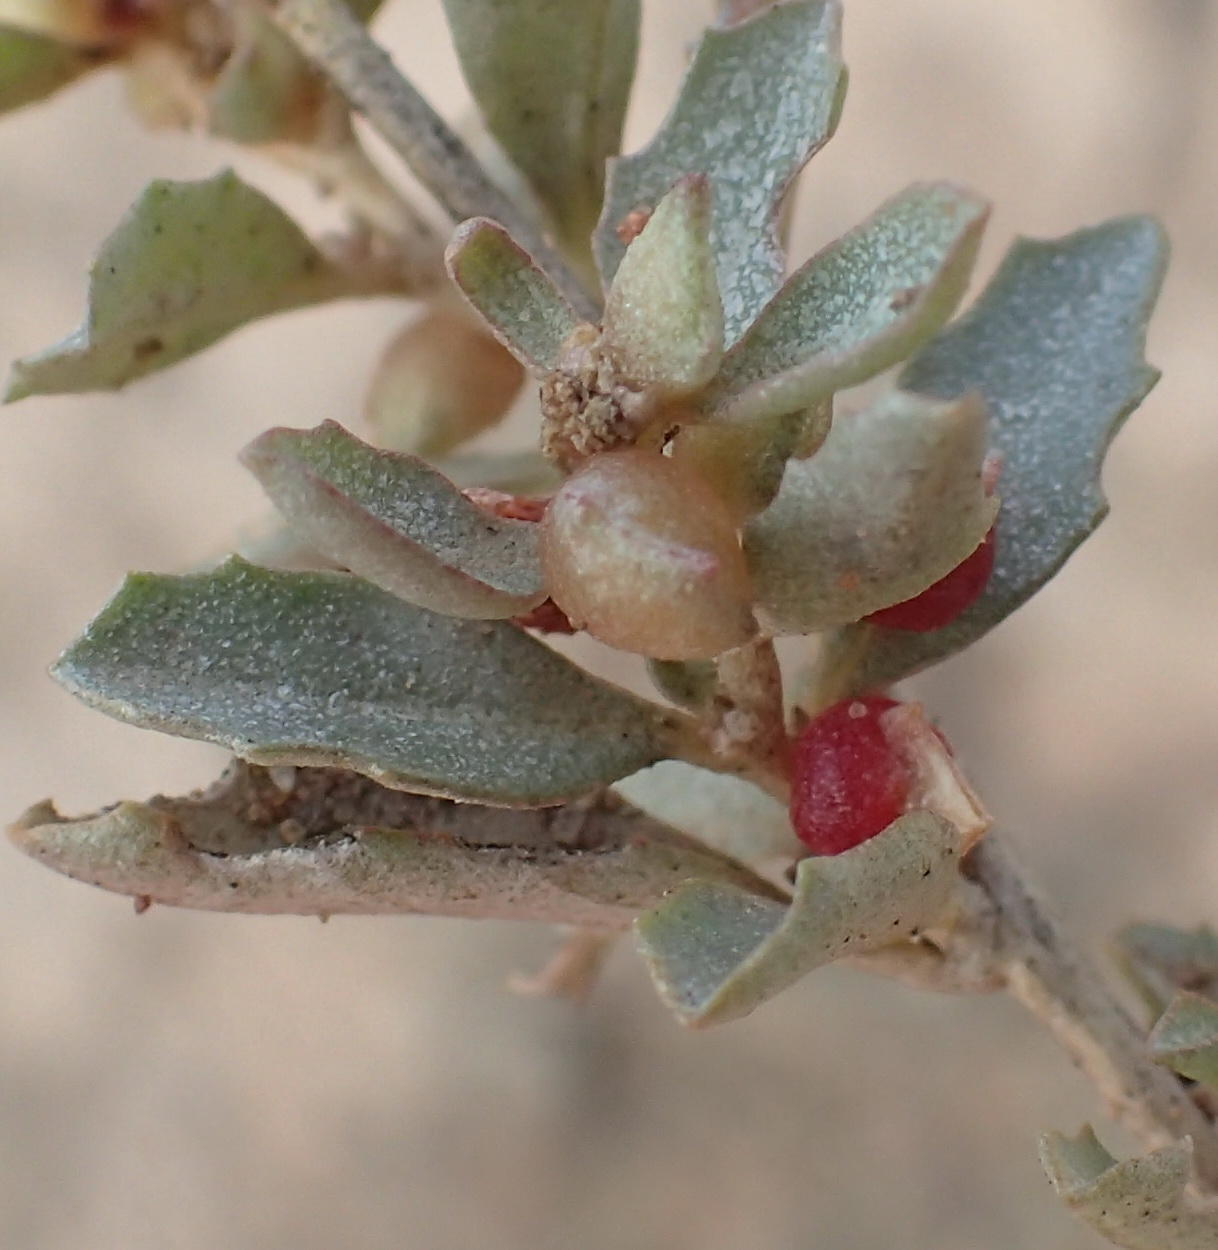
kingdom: Plantae
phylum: Tracheophyta
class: Magnoliopsida
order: Caryophyllales
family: Amaranthaceae
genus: Atriplex
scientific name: Atriplex semibaccata
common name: Australian saltbush
